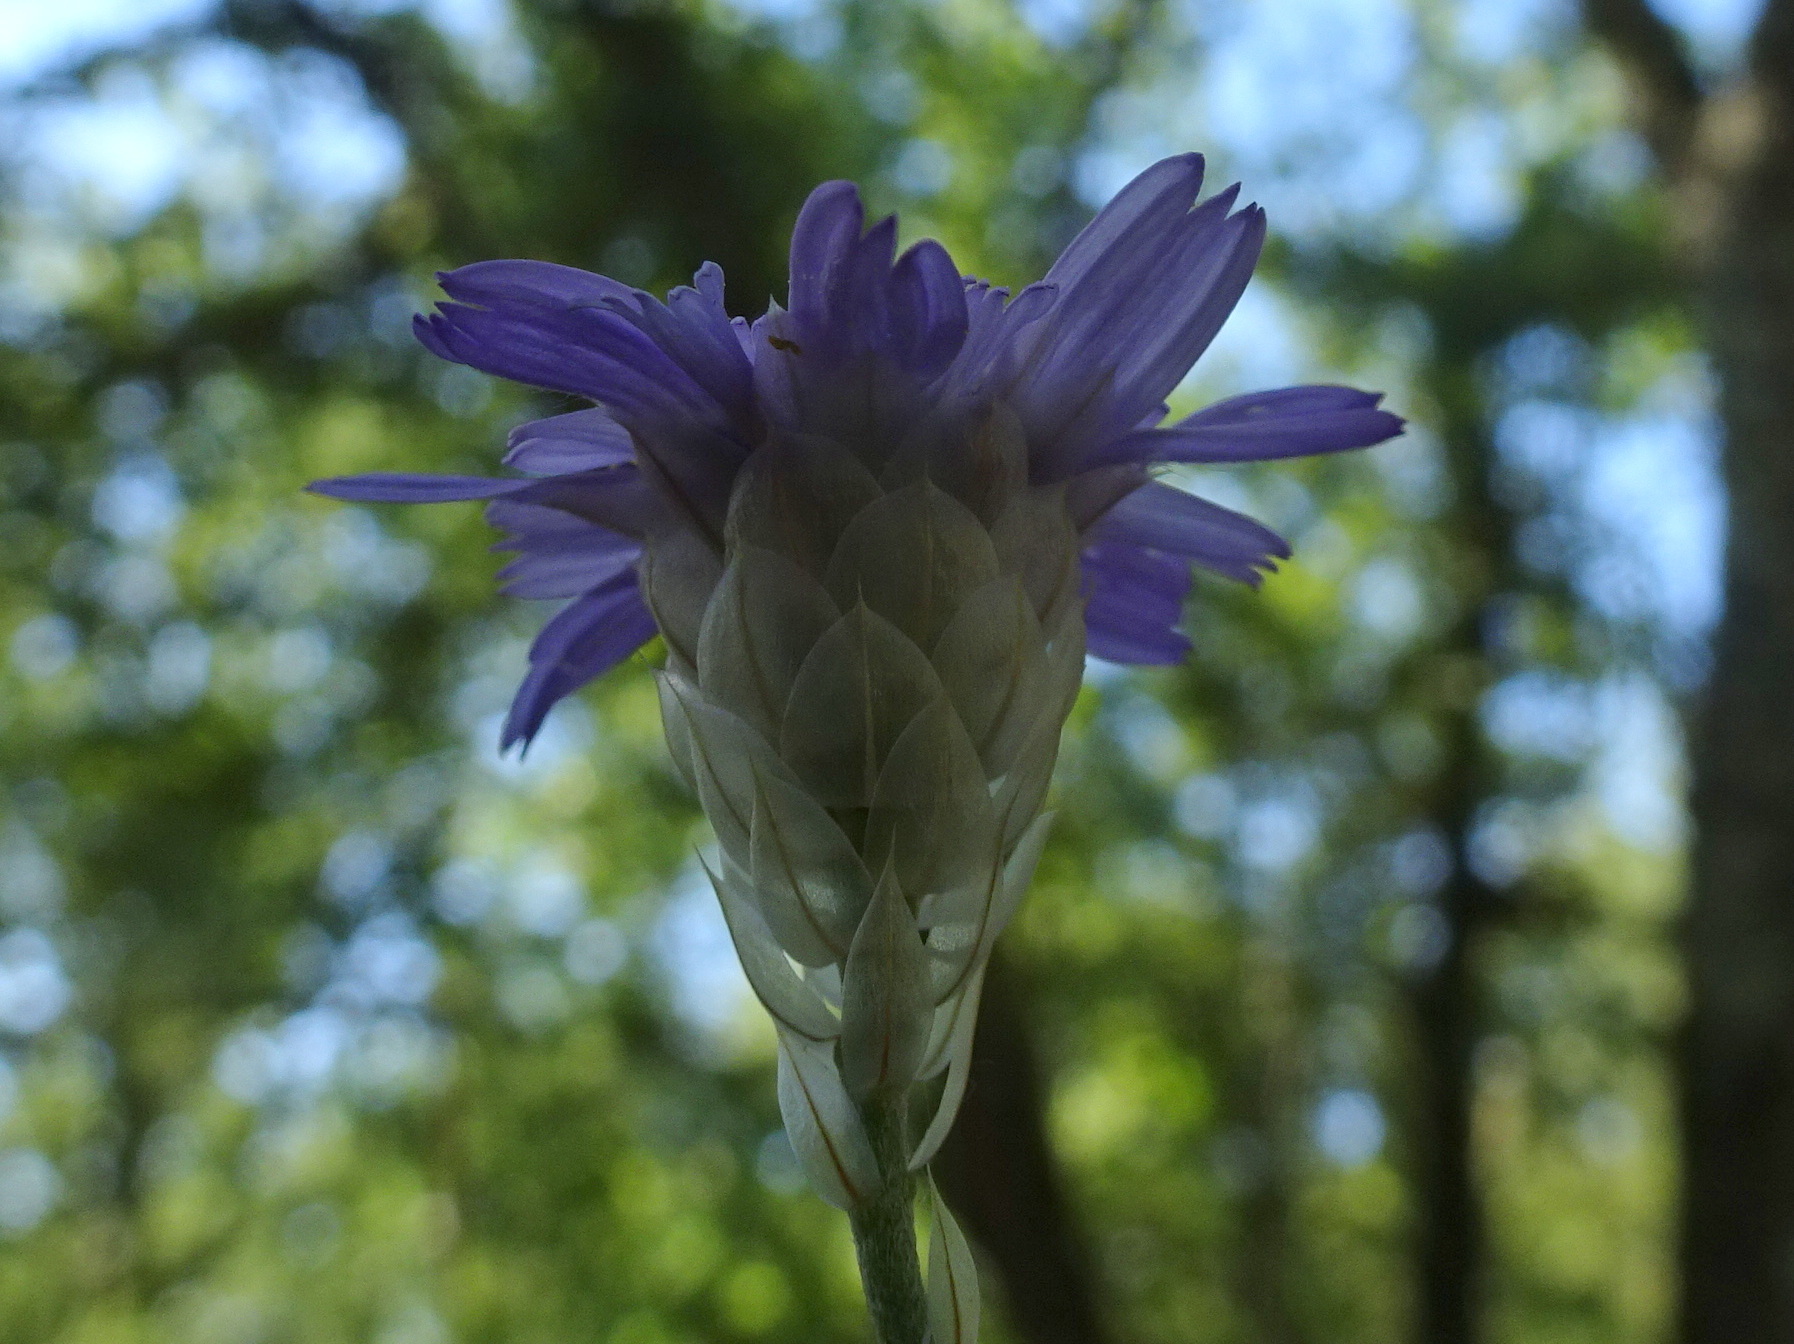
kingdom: Plantae
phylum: Tracheophyta
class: Magnoliopsida
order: Asterales
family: Asteraceae
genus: Catananche
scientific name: Catananche caerulea
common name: Blue cupidone
